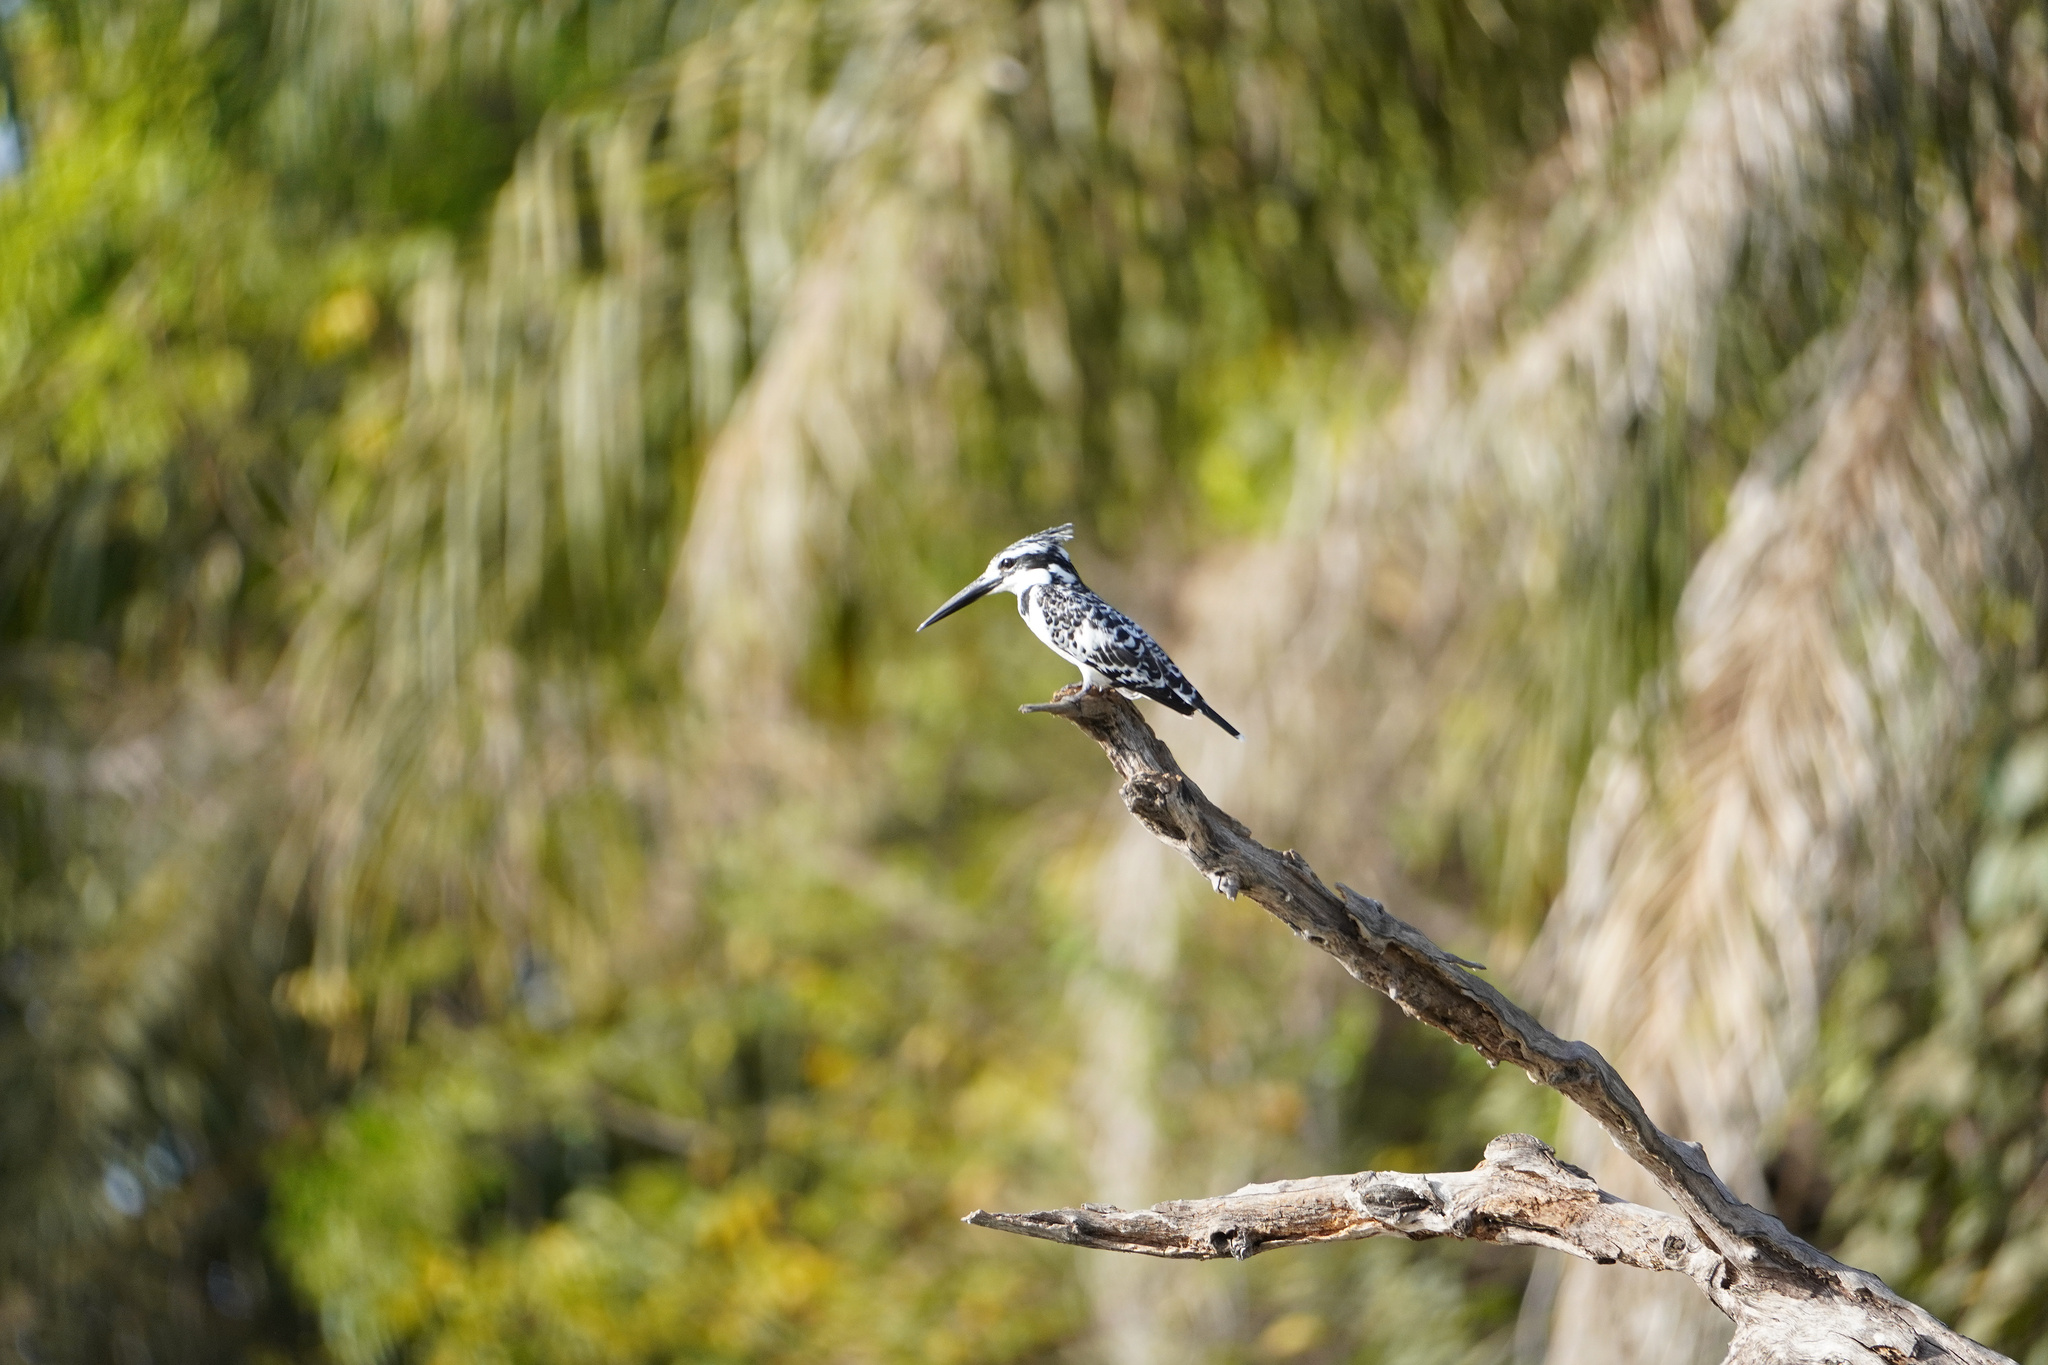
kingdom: Animalia
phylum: Chordata
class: Aves
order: Coraciiformes
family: Alcedinidae
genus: Ceryle
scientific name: Ceryle rudis
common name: Pied kingfisher
